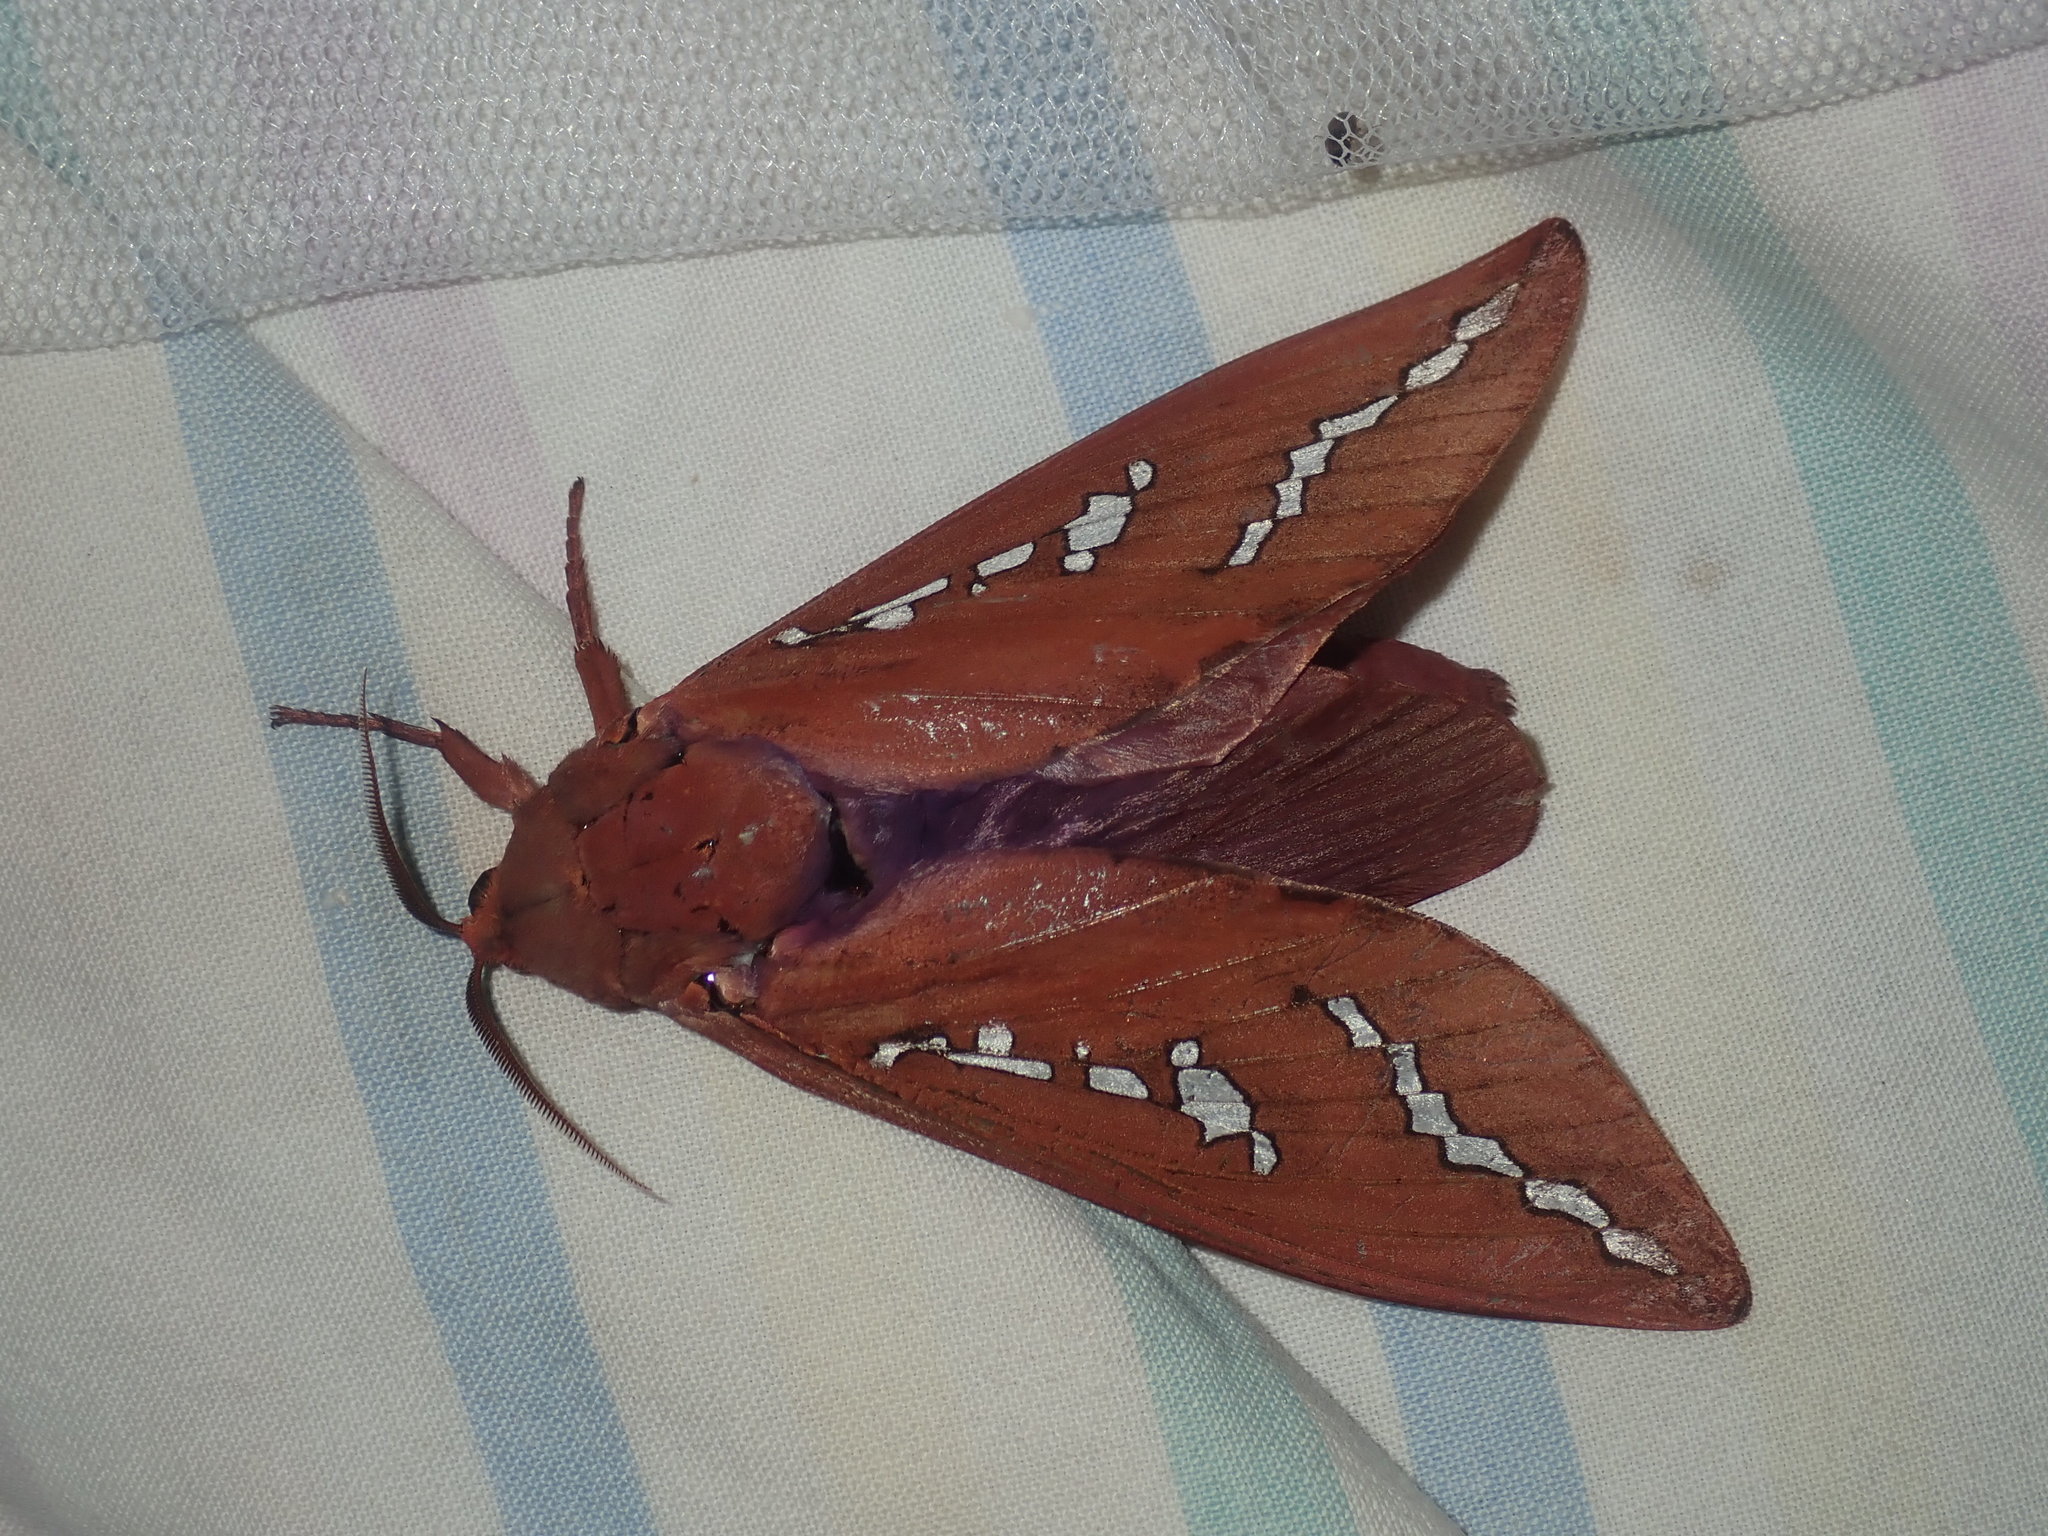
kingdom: Animalia
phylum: Arthropoda
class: Insecta
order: Lepidoptera
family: Hepialidae
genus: Abantiades
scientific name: Abantiades hyalinatus
